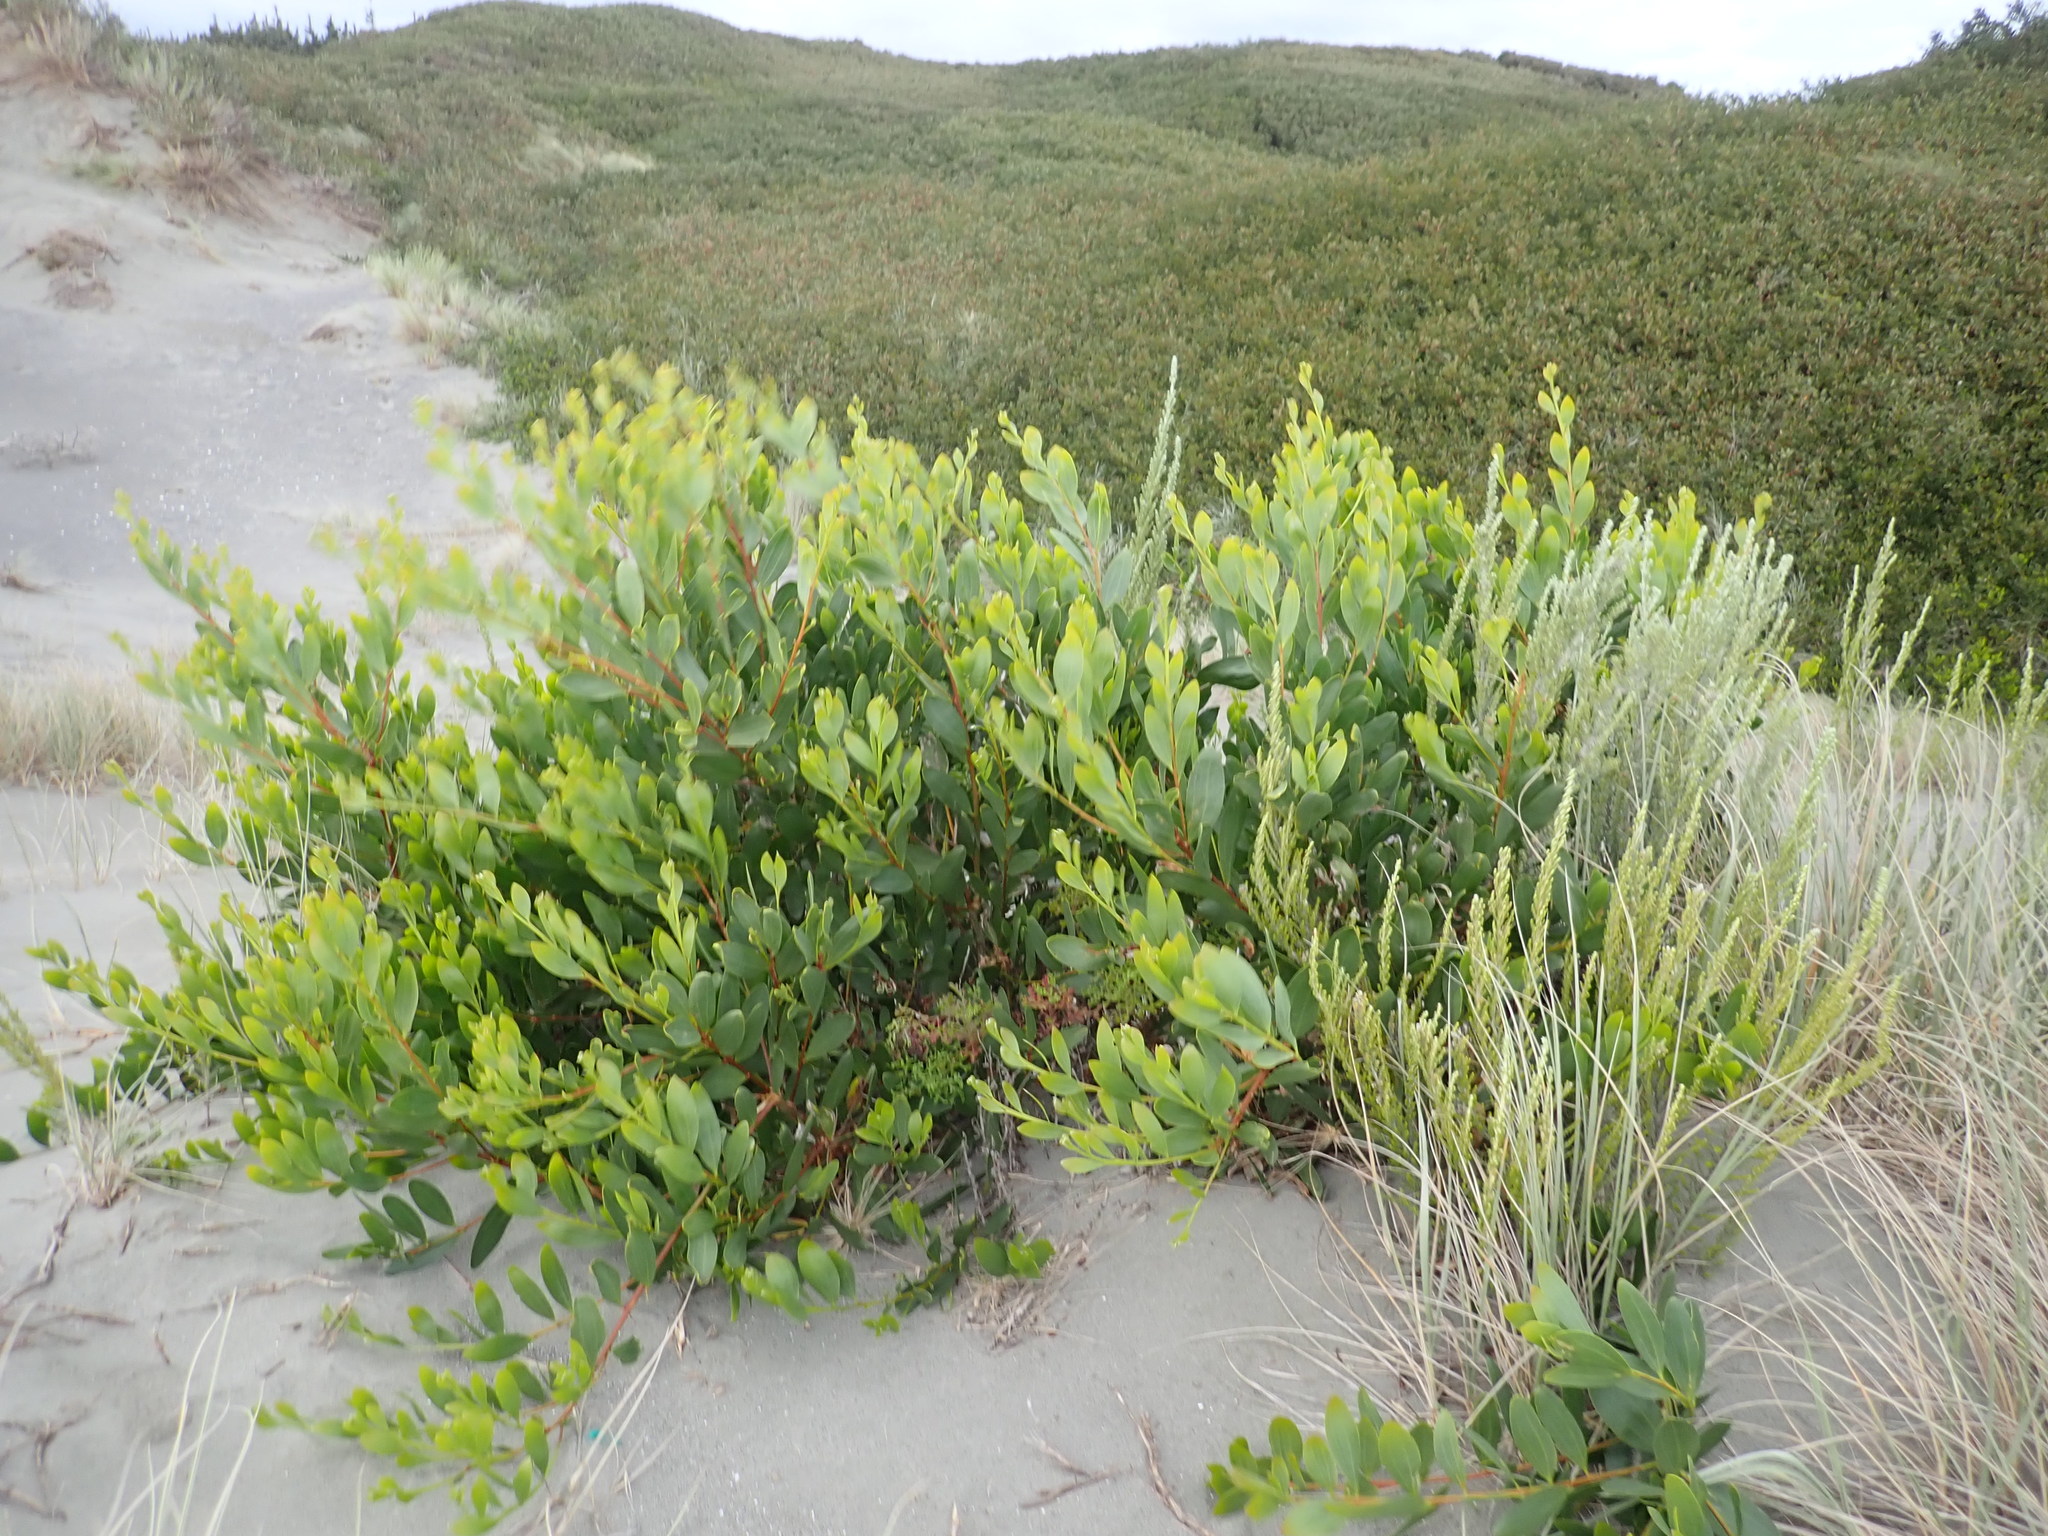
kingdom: Plantae
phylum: Tracheophyta
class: Magnoliopsida
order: Fabales
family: Fabaceae
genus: Acacia
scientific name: Acacia longifolia
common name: Sydney golden wattle
